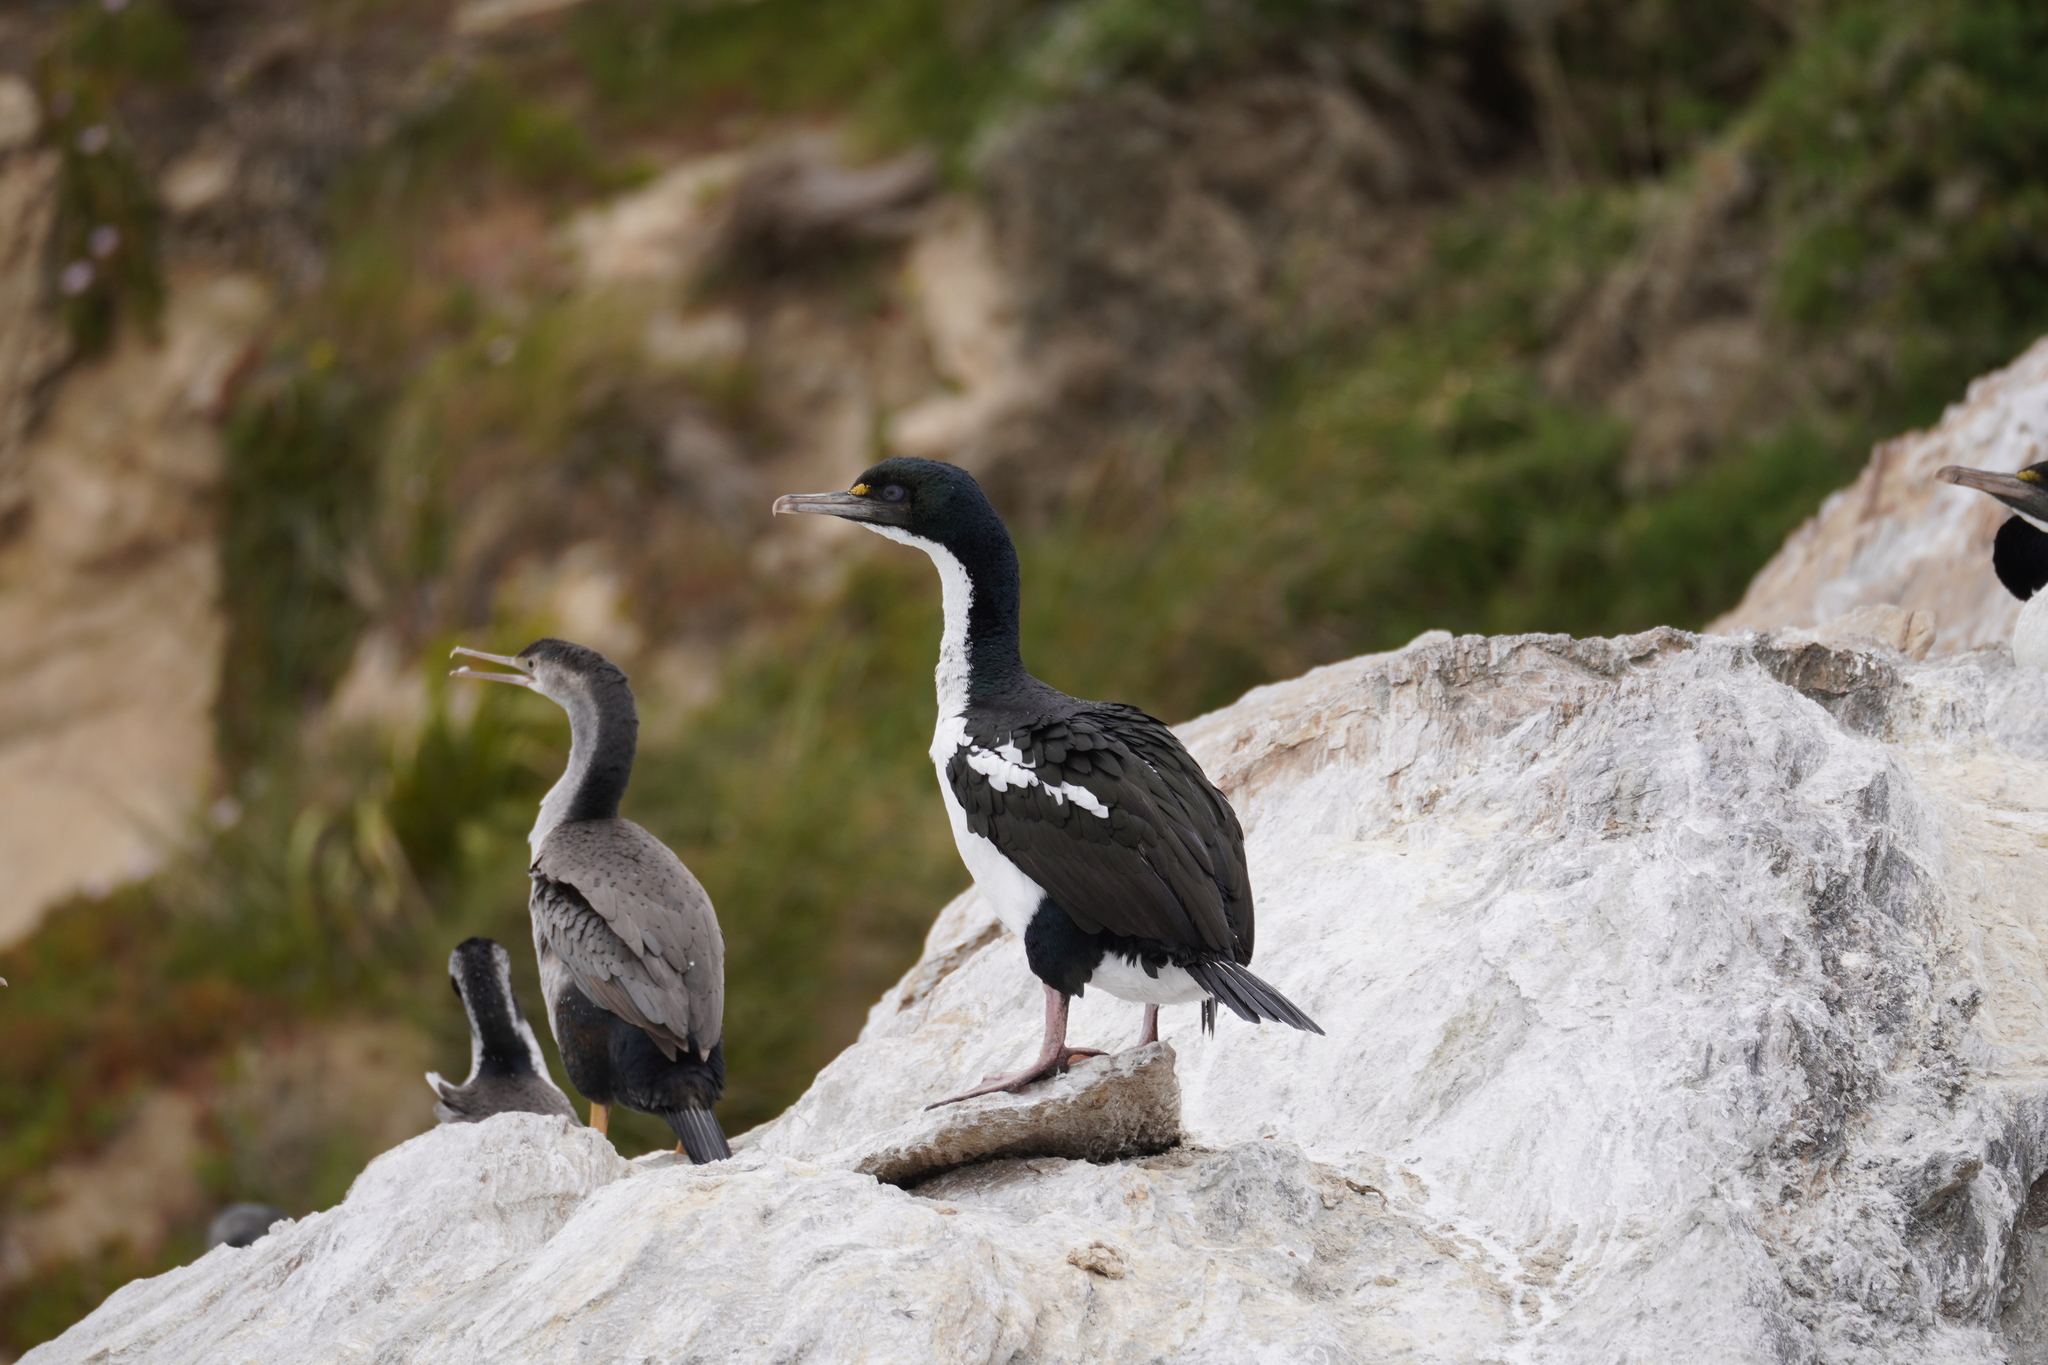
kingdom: Animalia
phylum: Chordata
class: Aves
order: Suliformes
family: Phalacrocoracidae
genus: Leucocarbo
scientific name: Leucocarbo carunculatus
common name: Rough-faced shag
